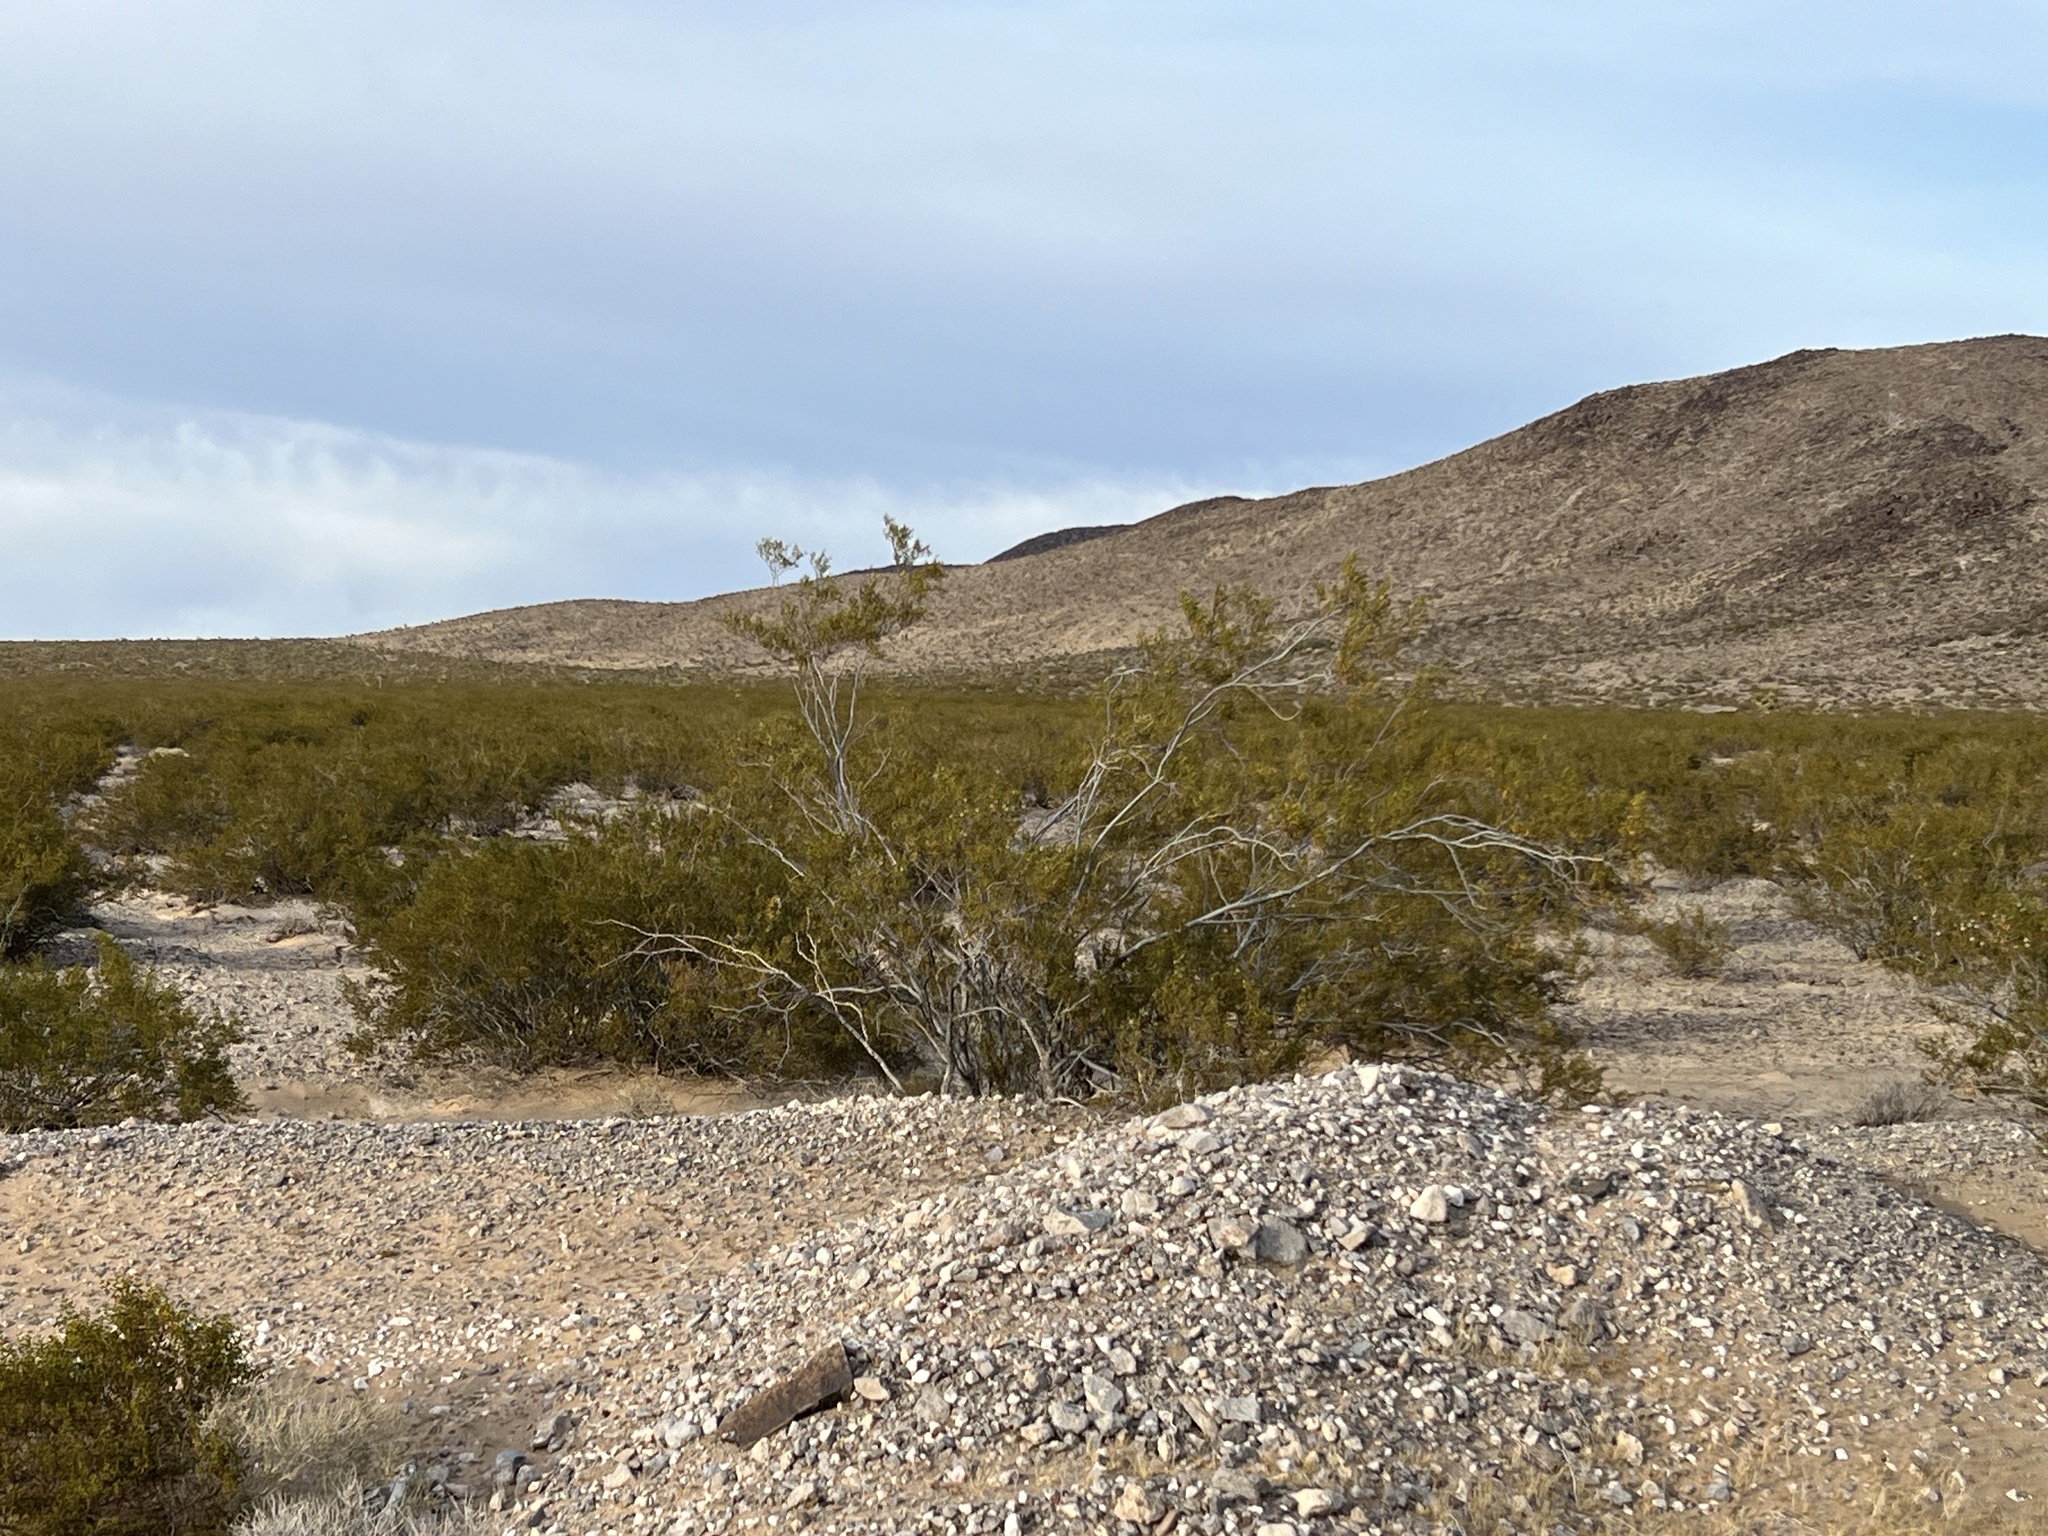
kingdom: Plantae
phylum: Tracheophyta
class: Magnoliopsida
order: Zygophyllales
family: Zygophyllaceae
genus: Larrea
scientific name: Larrea tridentata
